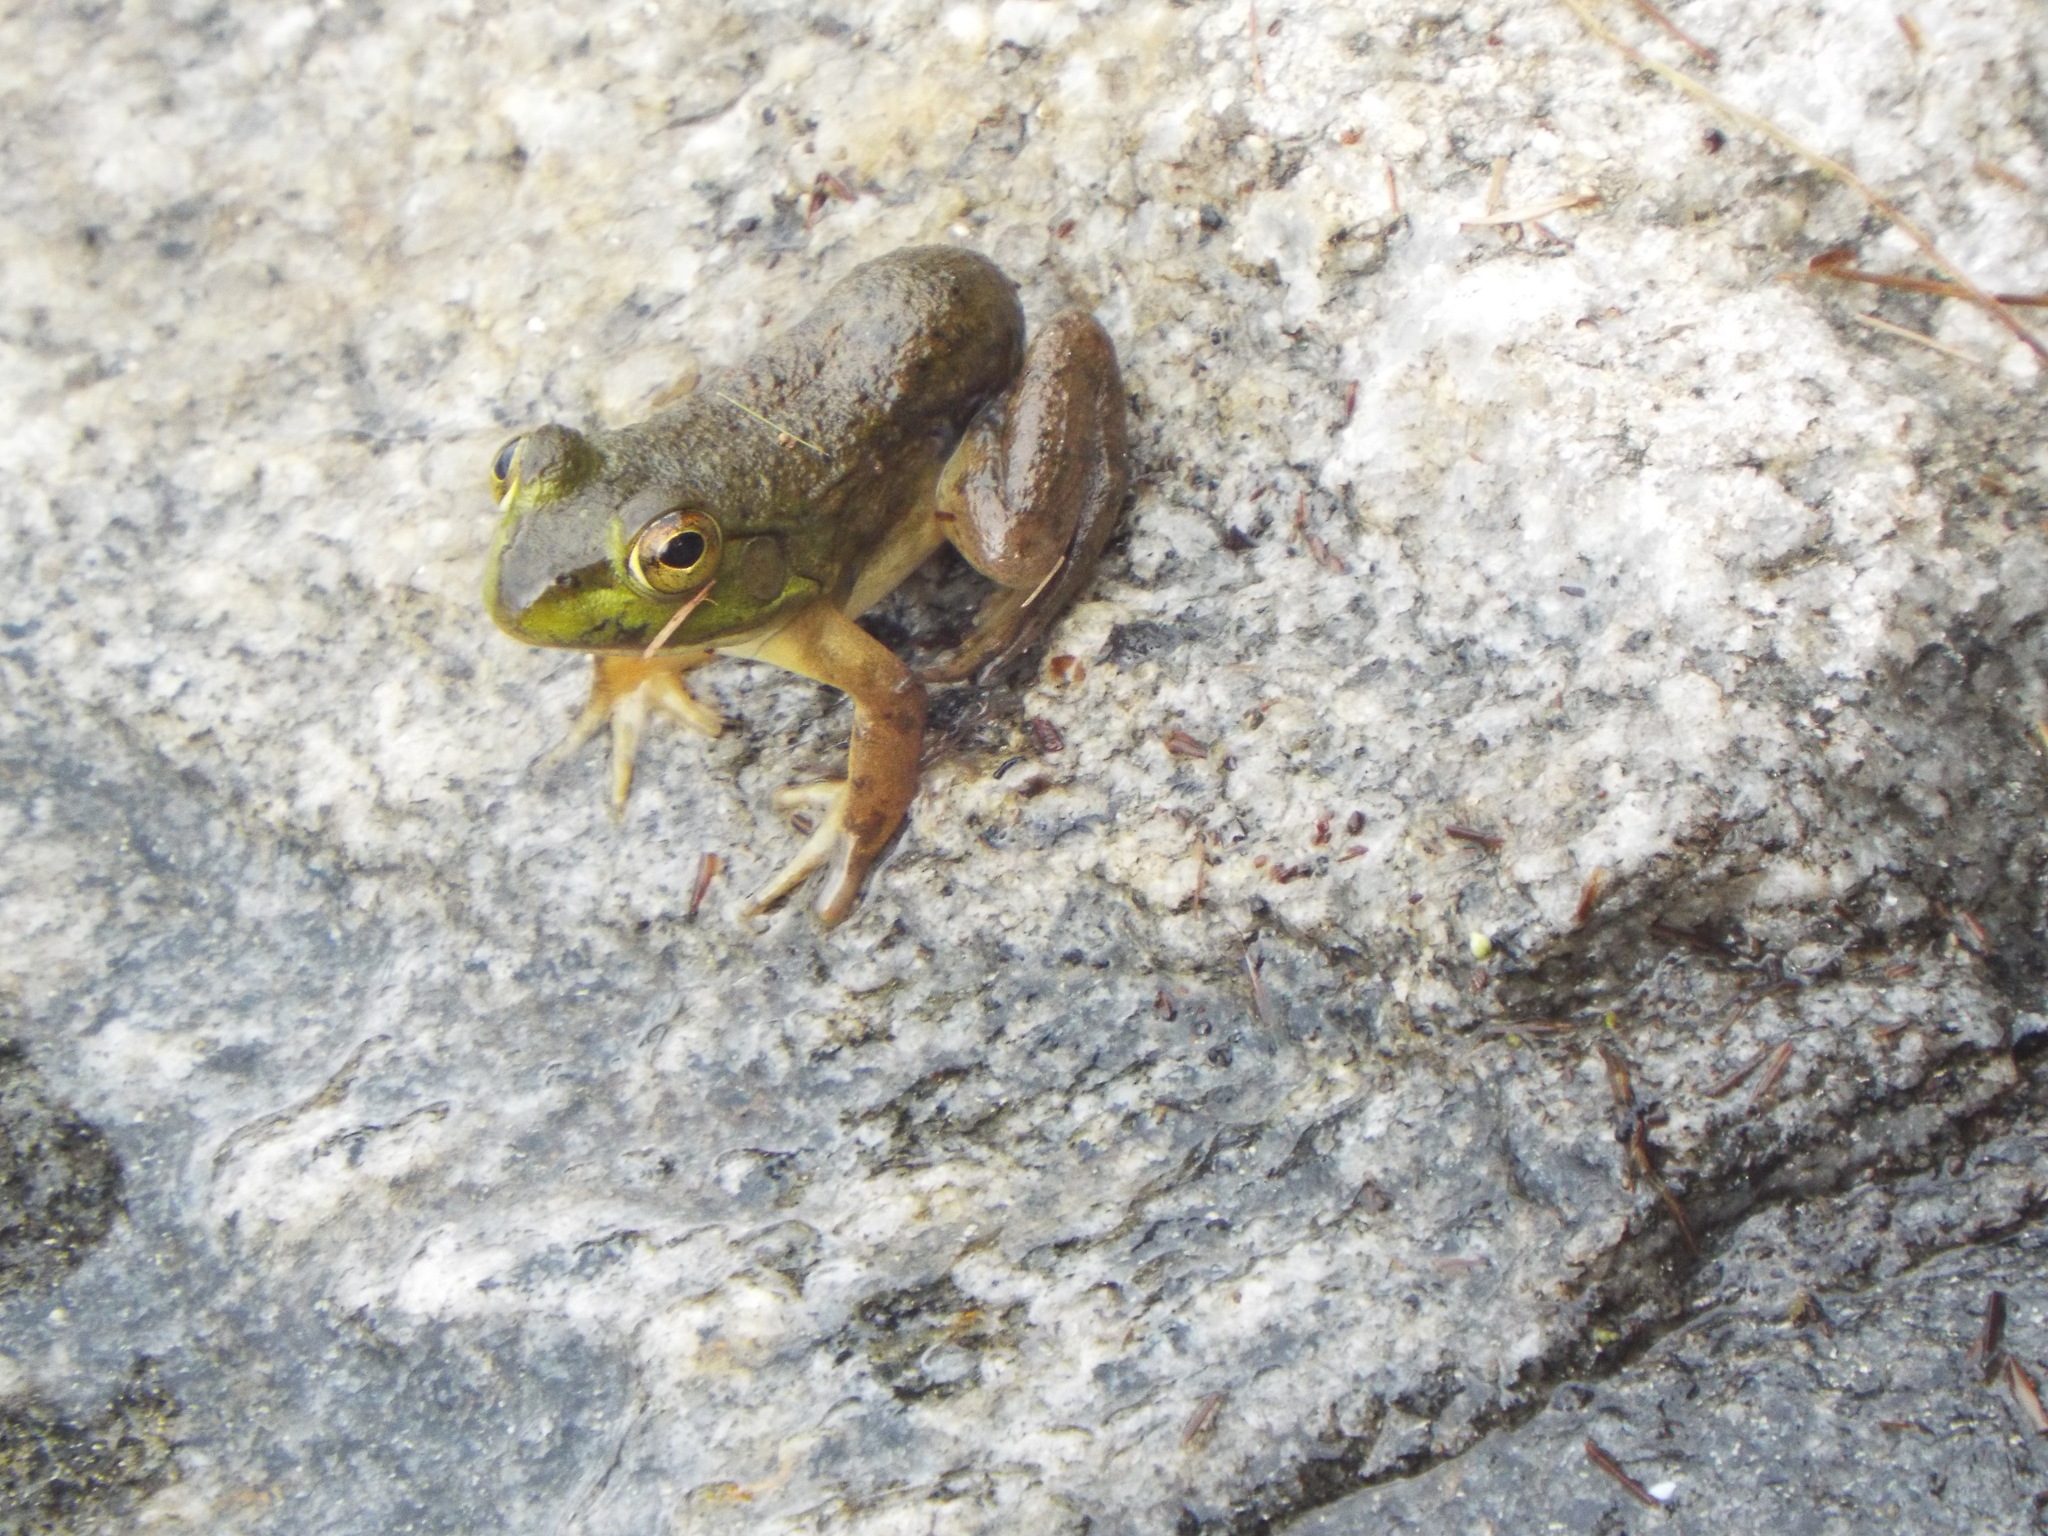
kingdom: Animalia
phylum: Chordata
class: Amphibia
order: Anura
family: Ranidae
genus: Lithobates
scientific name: Lithobates clamitans
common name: Green frog
